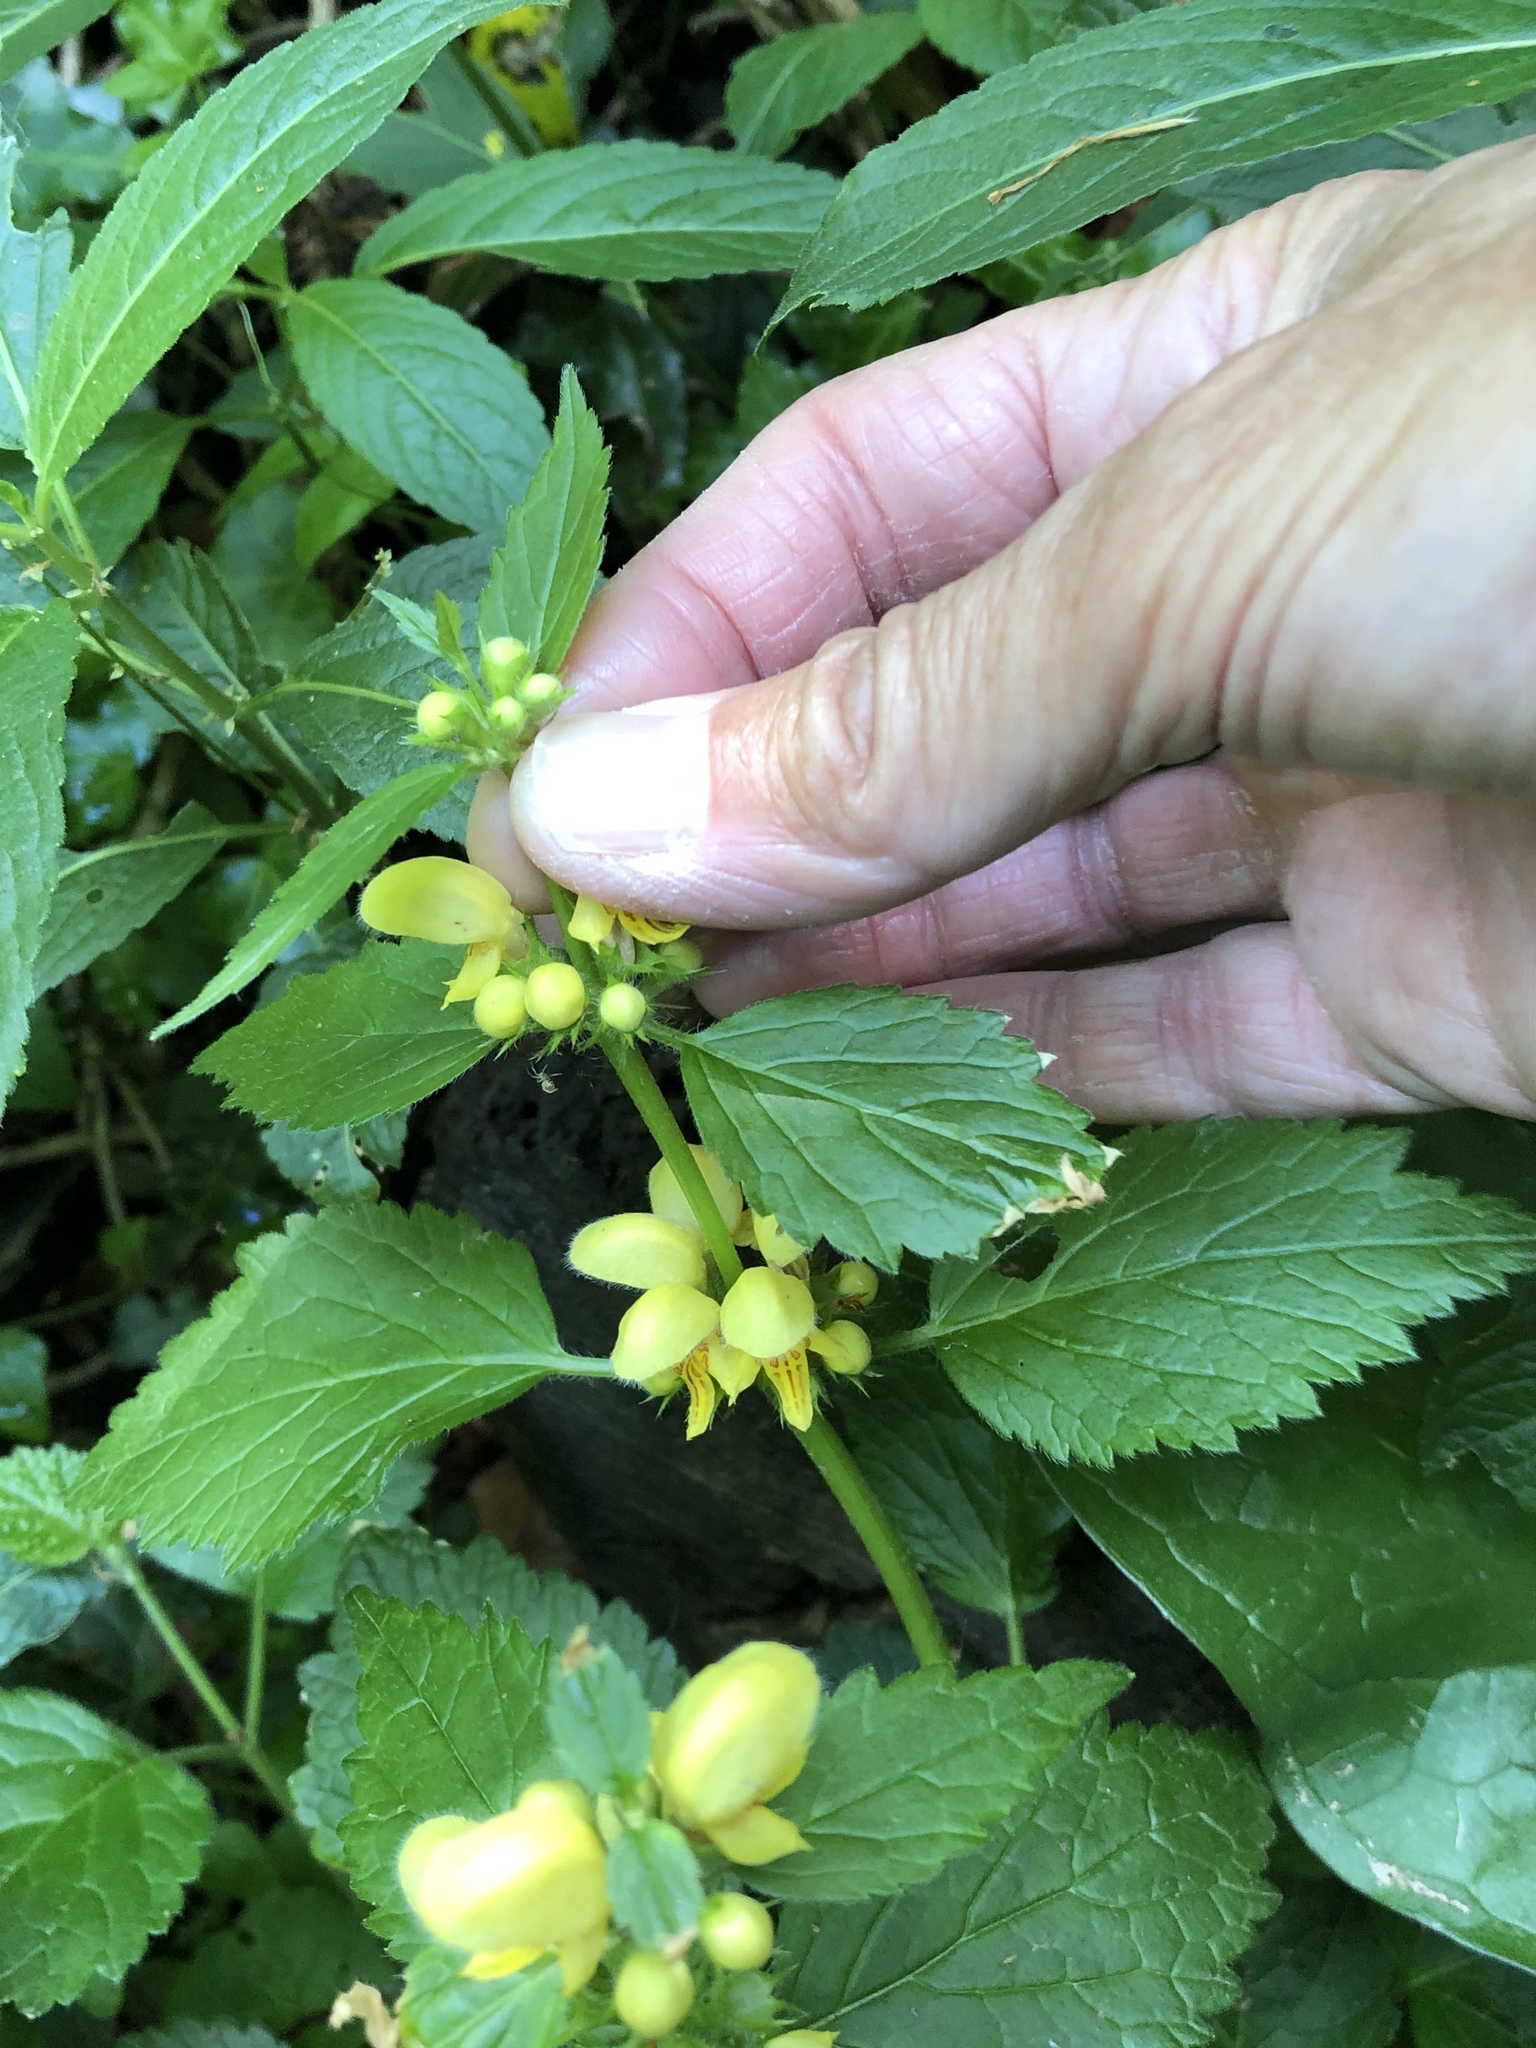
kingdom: Plantae
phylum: Tracheophyta
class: Magnoliopsida
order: Lamiales
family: Lamiaceae
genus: Lamium
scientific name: Lamium galeobdolon
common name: Yellow archangel
